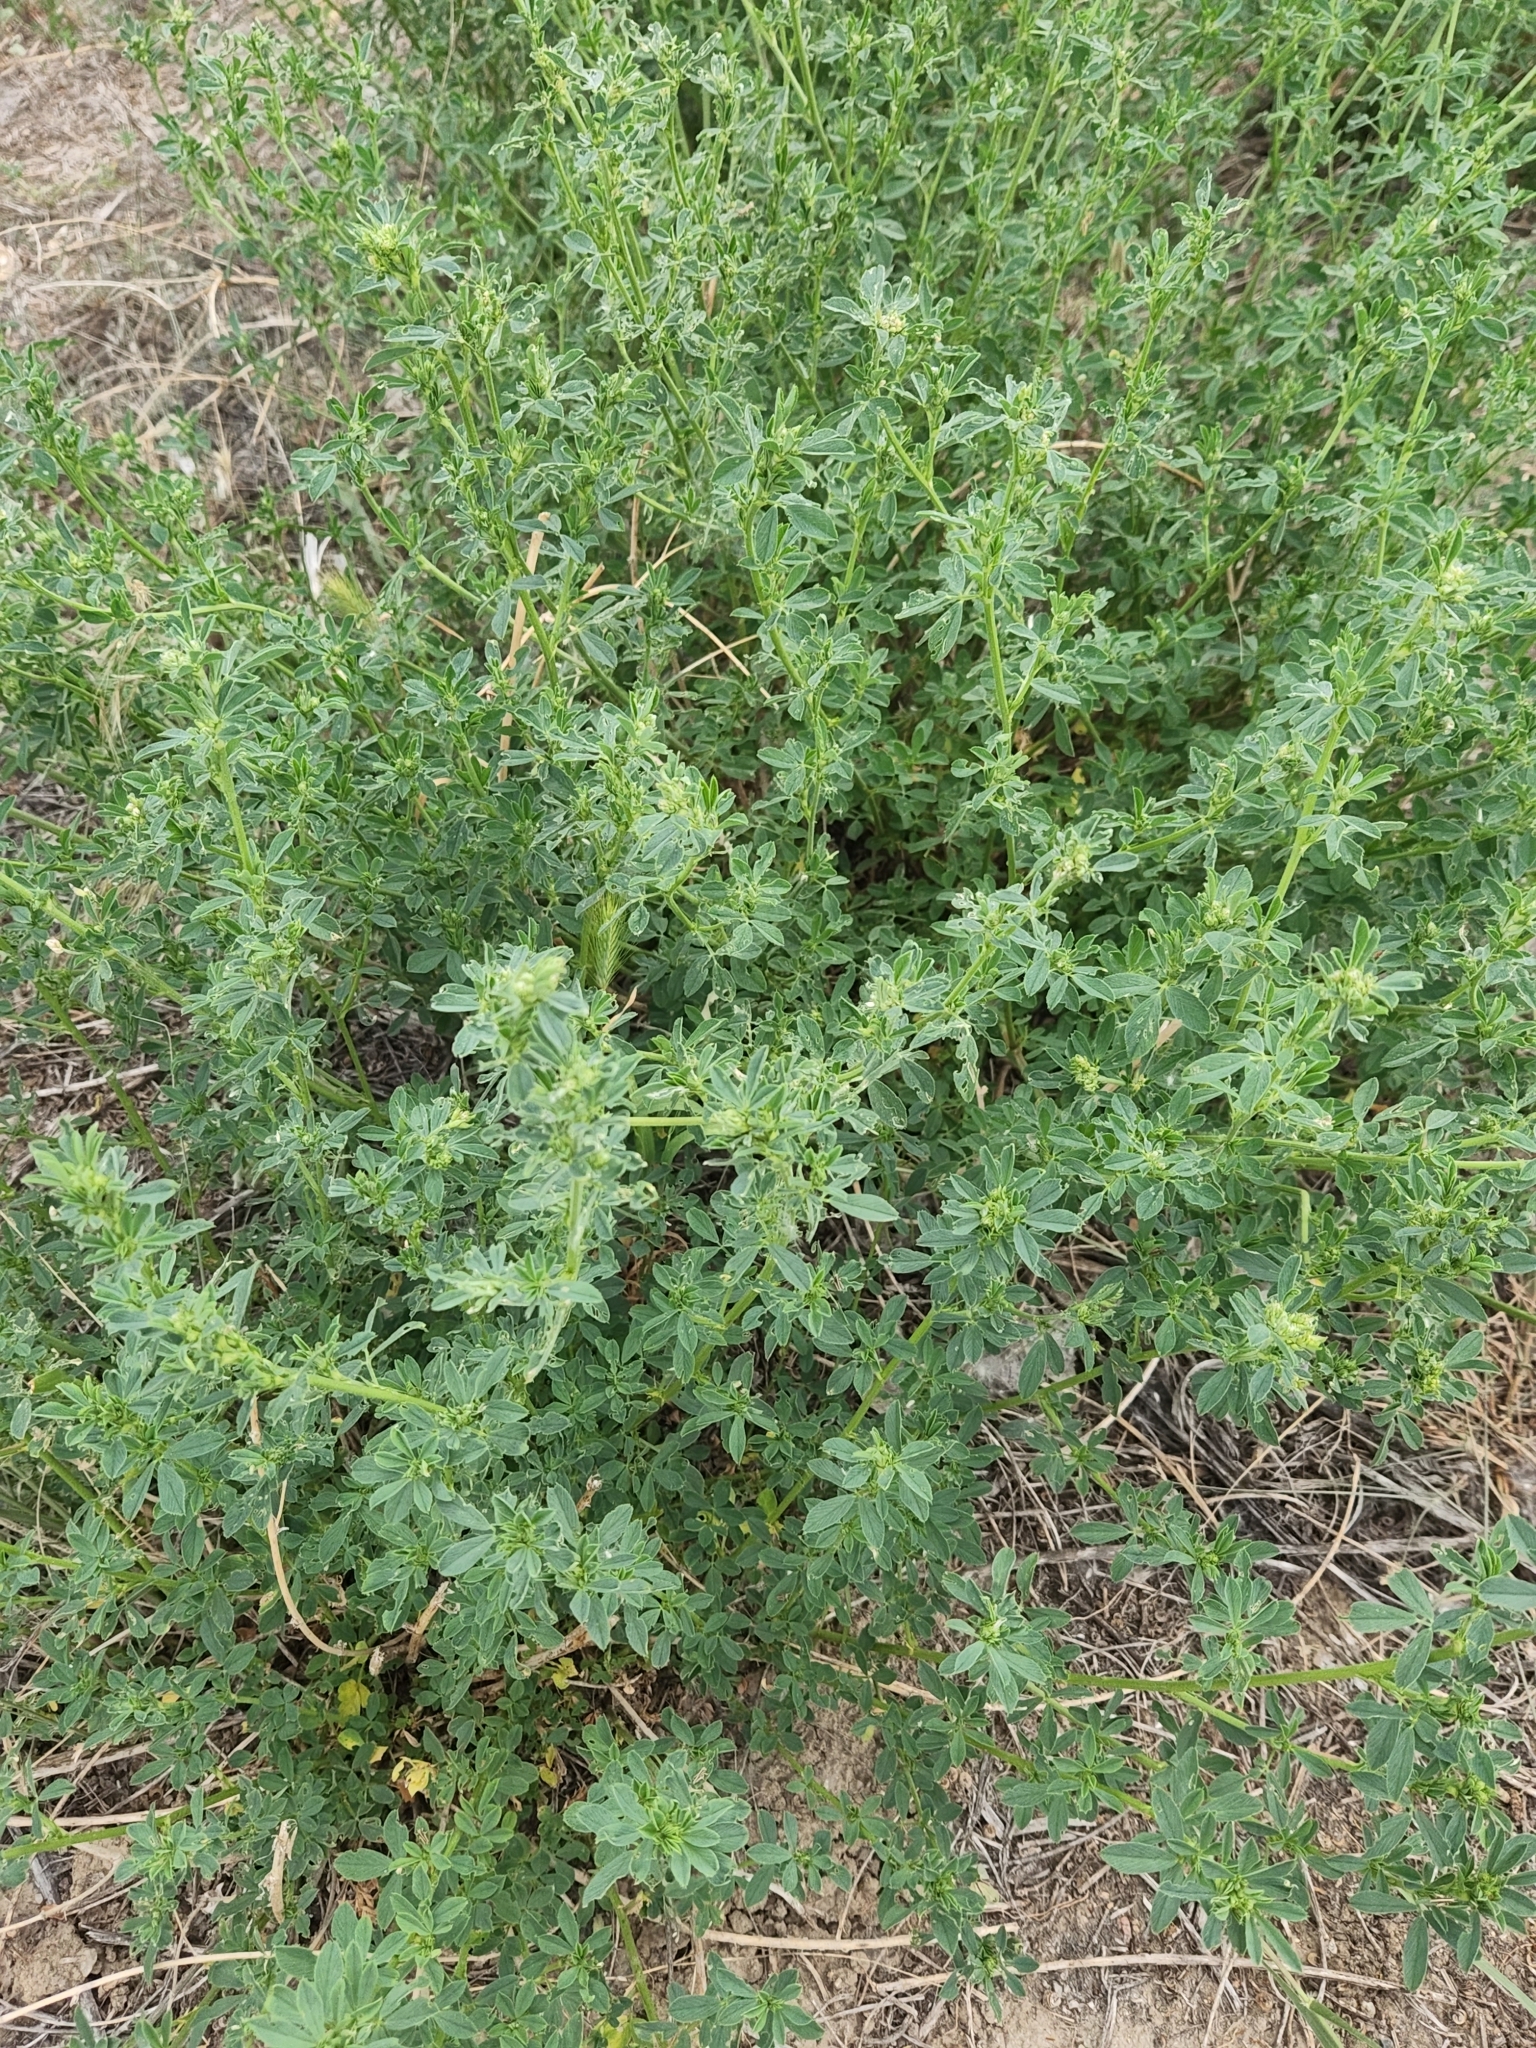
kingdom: Plantae
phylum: Tracheophyta
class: Magnoliopsida
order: Fabales
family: Fabaceae
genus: Medicago
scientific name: Medicago sativa
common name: Alfalfa
